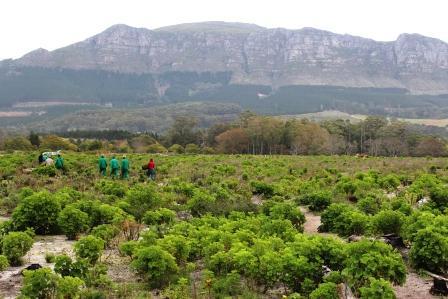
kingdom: Plantae
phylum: Tracheophyta
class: Magnoliopsida
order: Geraniales
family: Geraniaceae
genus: Pelargonium
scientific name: Pelargonium cucullatum
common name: Tree pelargonium
